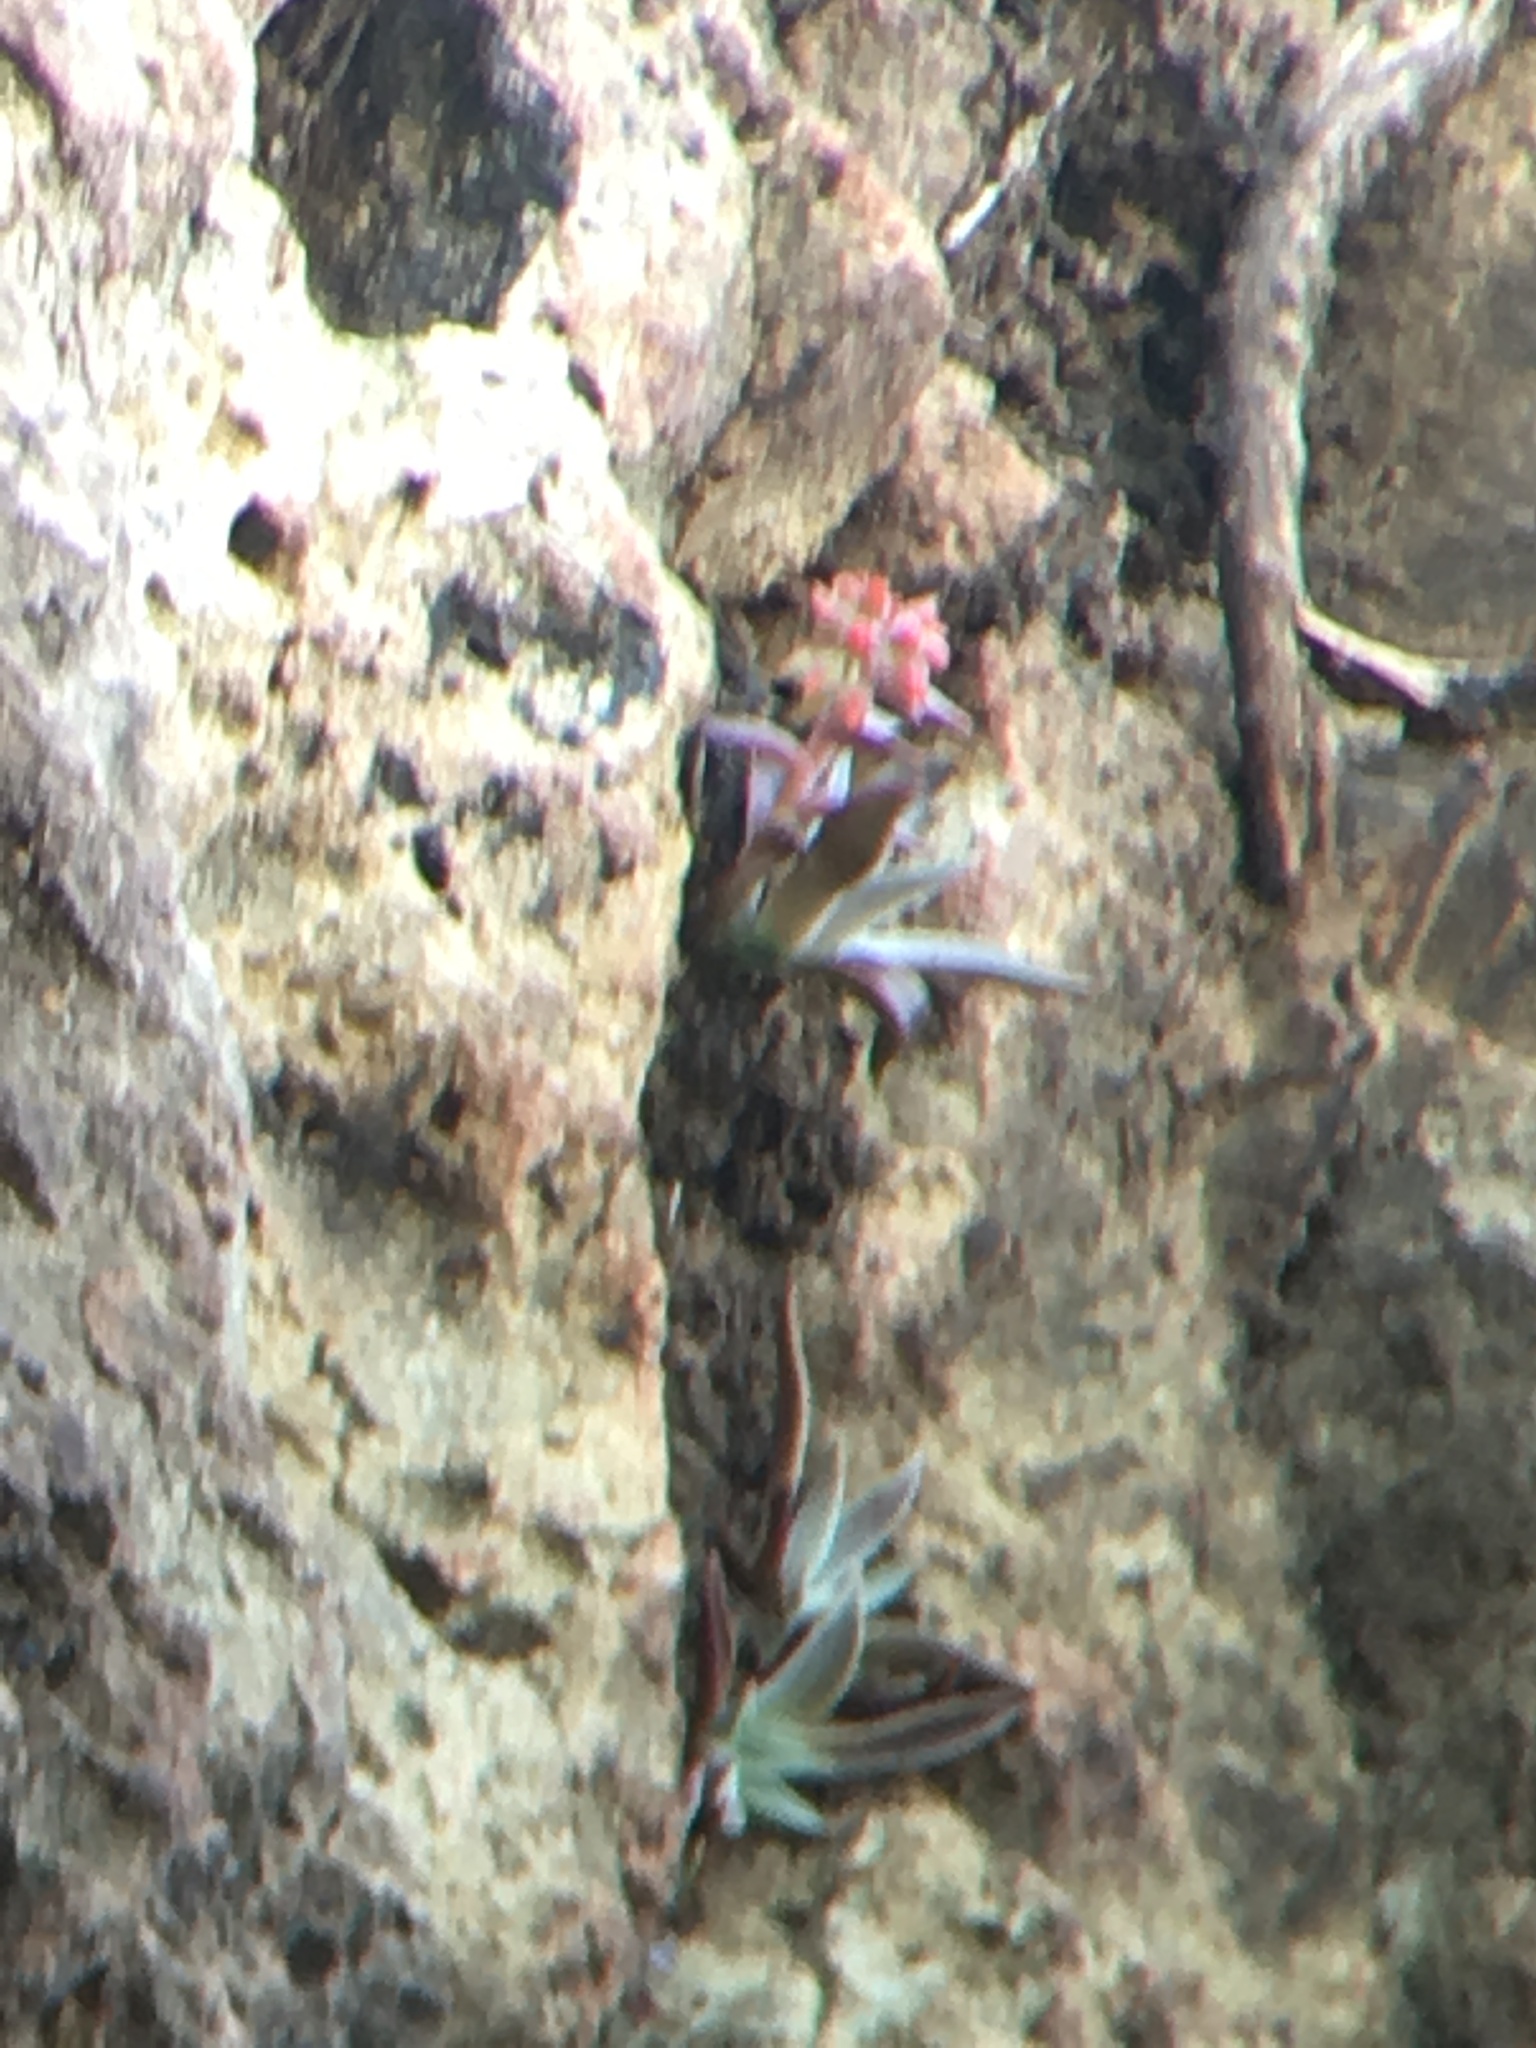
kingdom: Plantae
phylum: Tracheophyta
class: Magnoliopsida
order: Saxifragales
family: Crassulaceae
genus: Dudleya
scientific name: Dudleya cymosa
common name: Canyon dudleya
